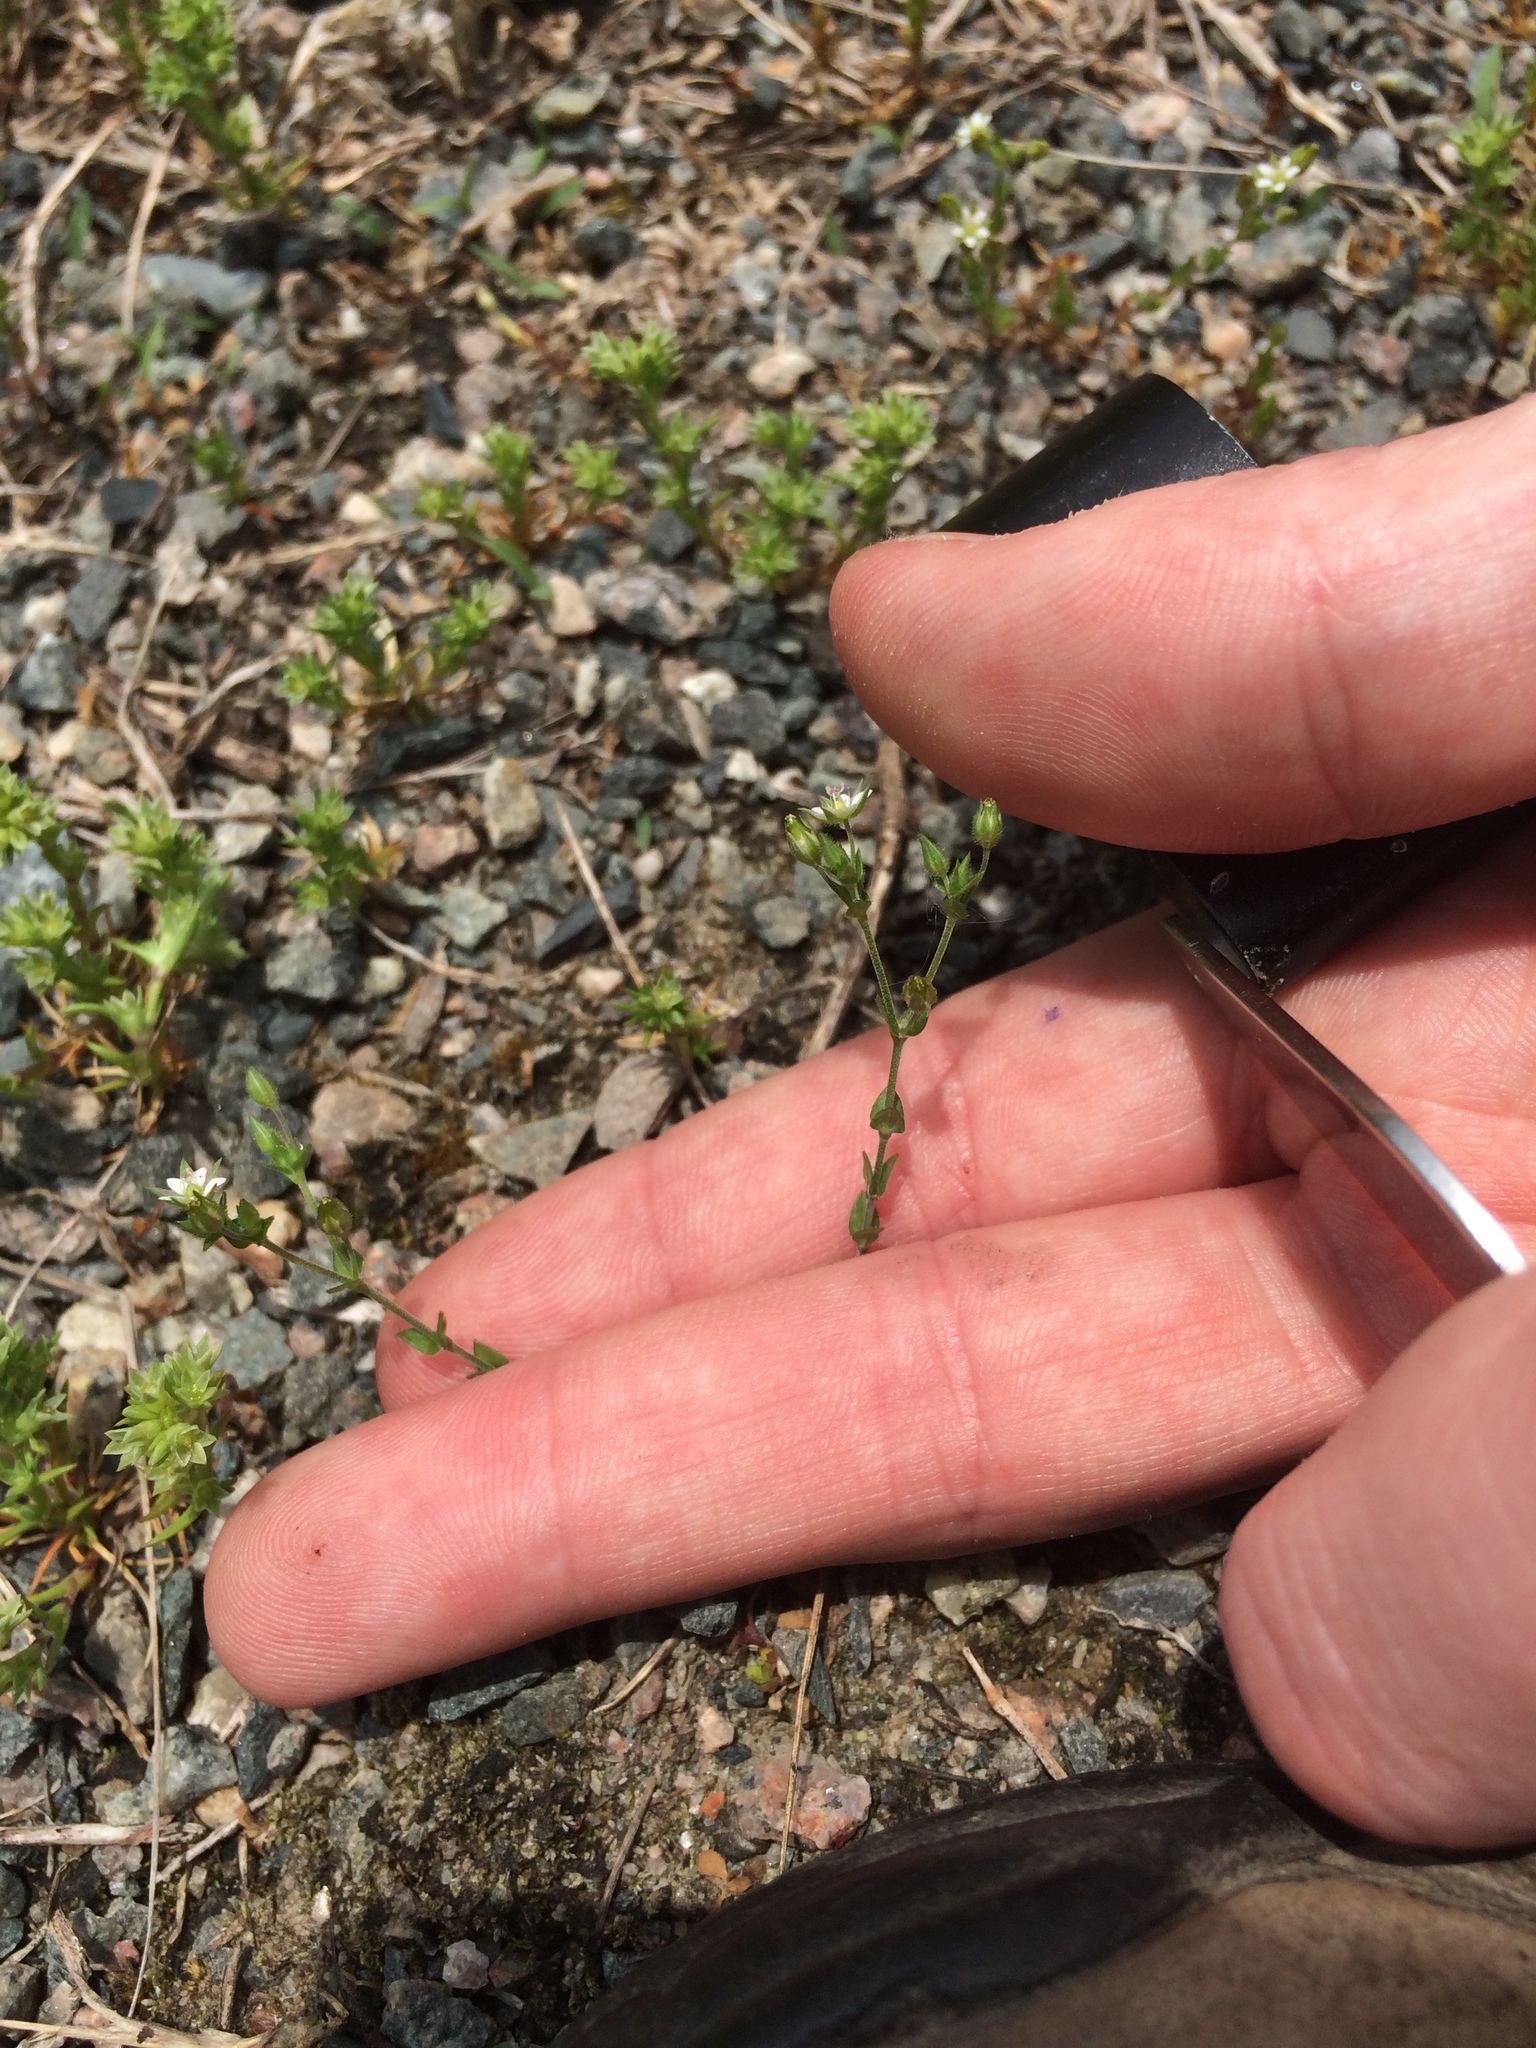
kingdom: Plantae
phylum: Tracheophyta
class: Magnoliopsida
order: Caryophyllales
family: Caryophyllaceae
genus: Arenaria
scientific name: Arenaria serpyllifolia
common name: Thyme-leaved sandwort
